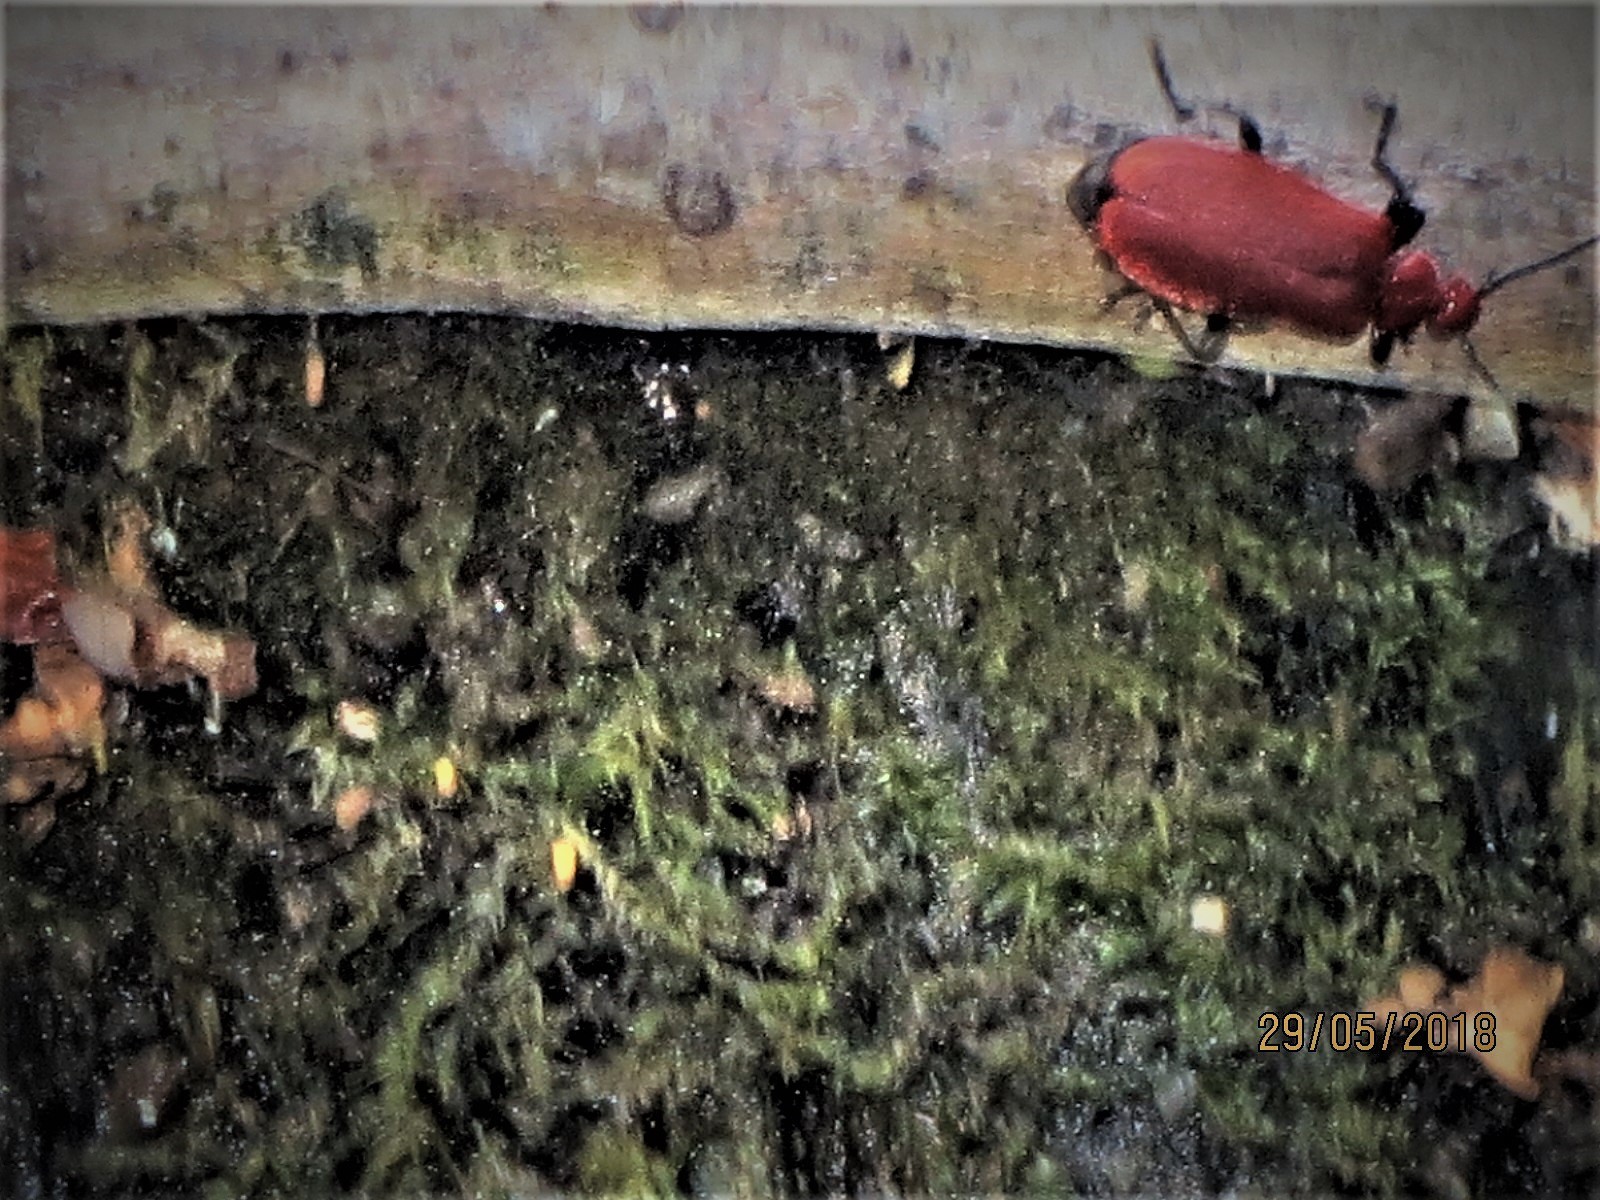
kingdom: Animalia
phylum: Arthropoda
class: Insecta
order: Coleoptera
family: Pyrochroidae
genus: Pyrochroa
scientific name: Pyrochroa serraticornis
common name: Red-headed cardinal beetle
